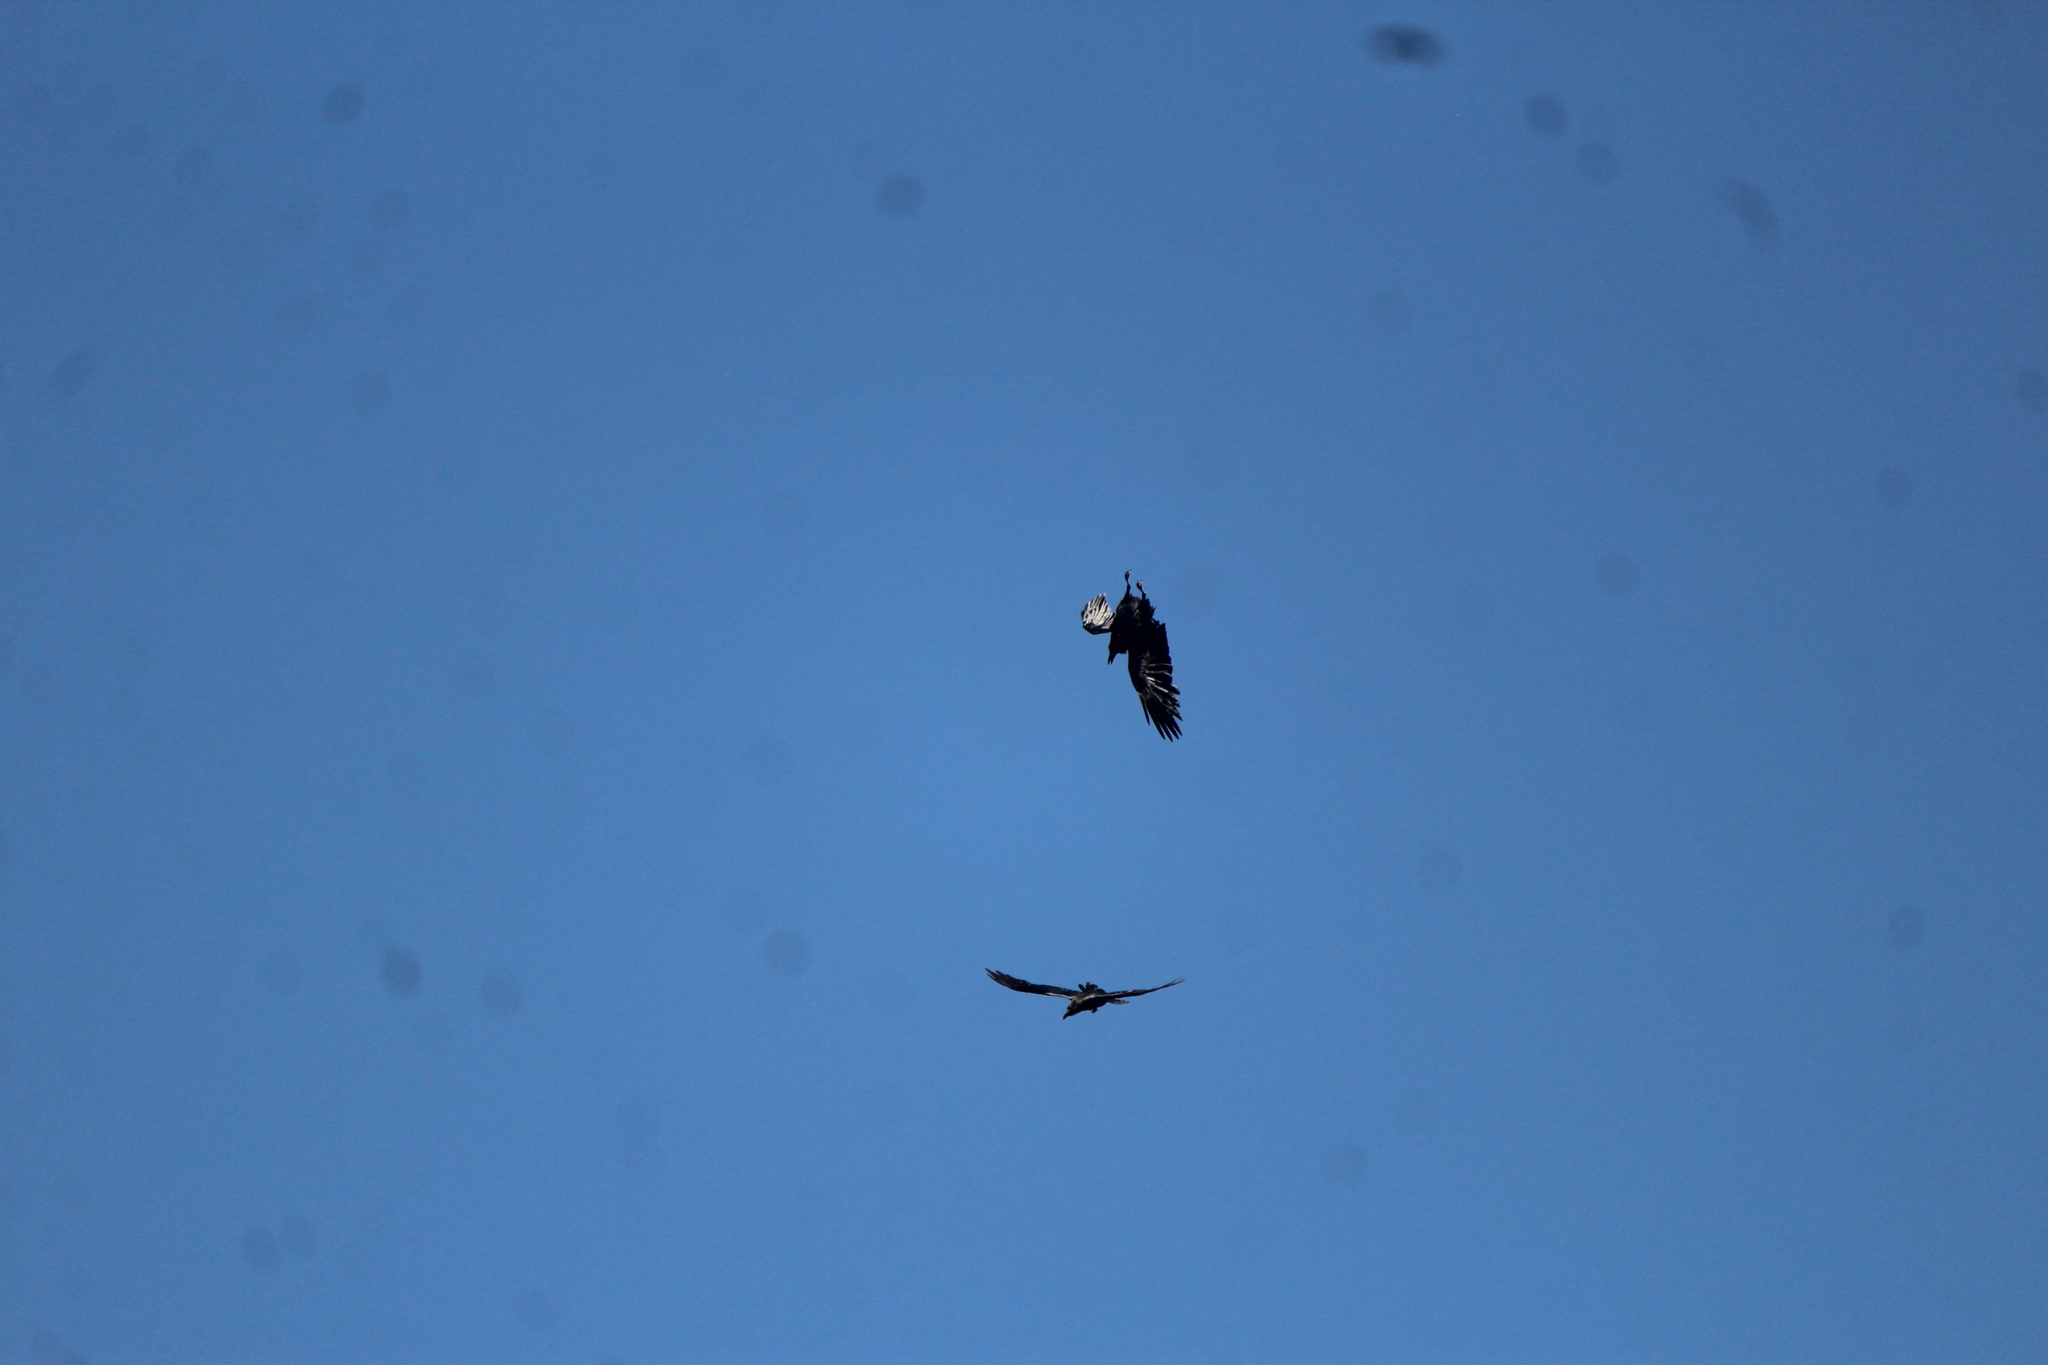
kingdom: Animalia
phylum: Chordata
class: Aves
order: Passeriformes
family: Corvidae
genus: Corvus
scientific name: Corvus corax
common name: Common raven
